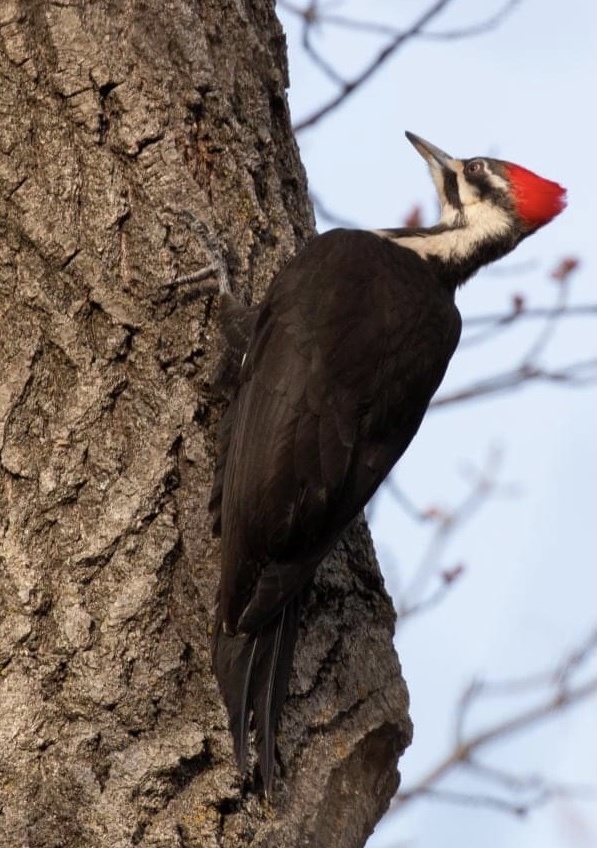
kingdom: Animalia
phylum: Chordata
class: Aves
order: Piciformes
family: Picidae
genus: Dryocopus
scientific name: Dryocopus pileatus
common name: Pileated woodpecker
